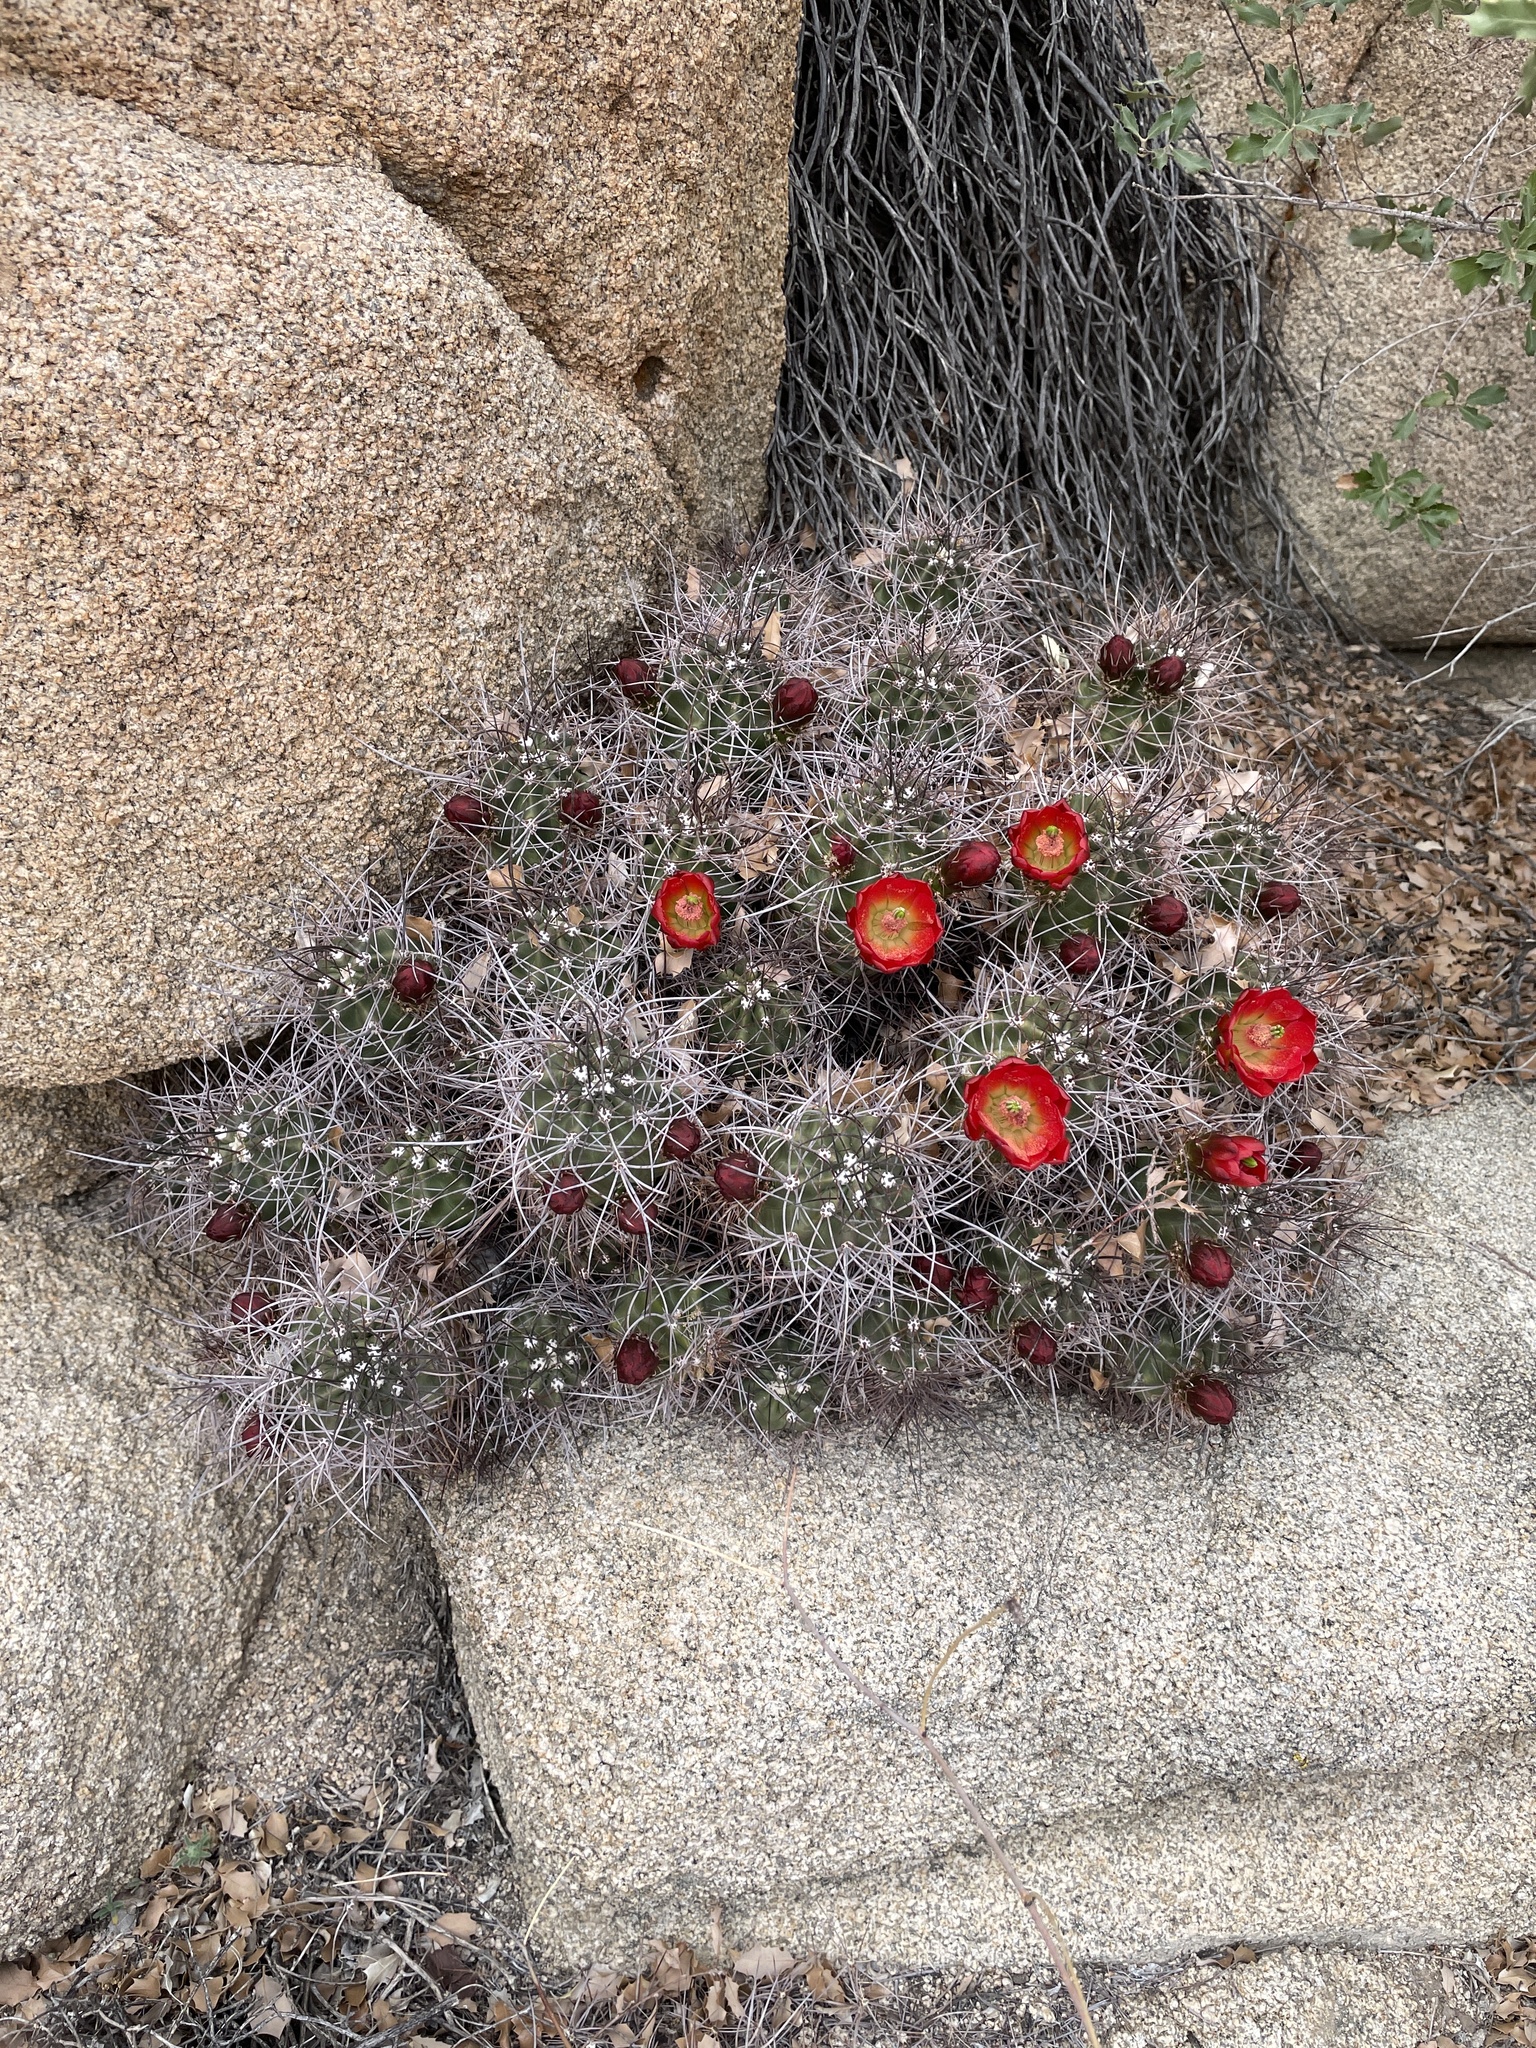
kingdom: Plantae
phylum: Tracheophyta
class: Magnoliopsida
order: Caryophyllales
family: Cactaceae
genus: Echinocereus
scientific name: Echinocereus triglochidiatus
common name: Claretcup hedgehog
